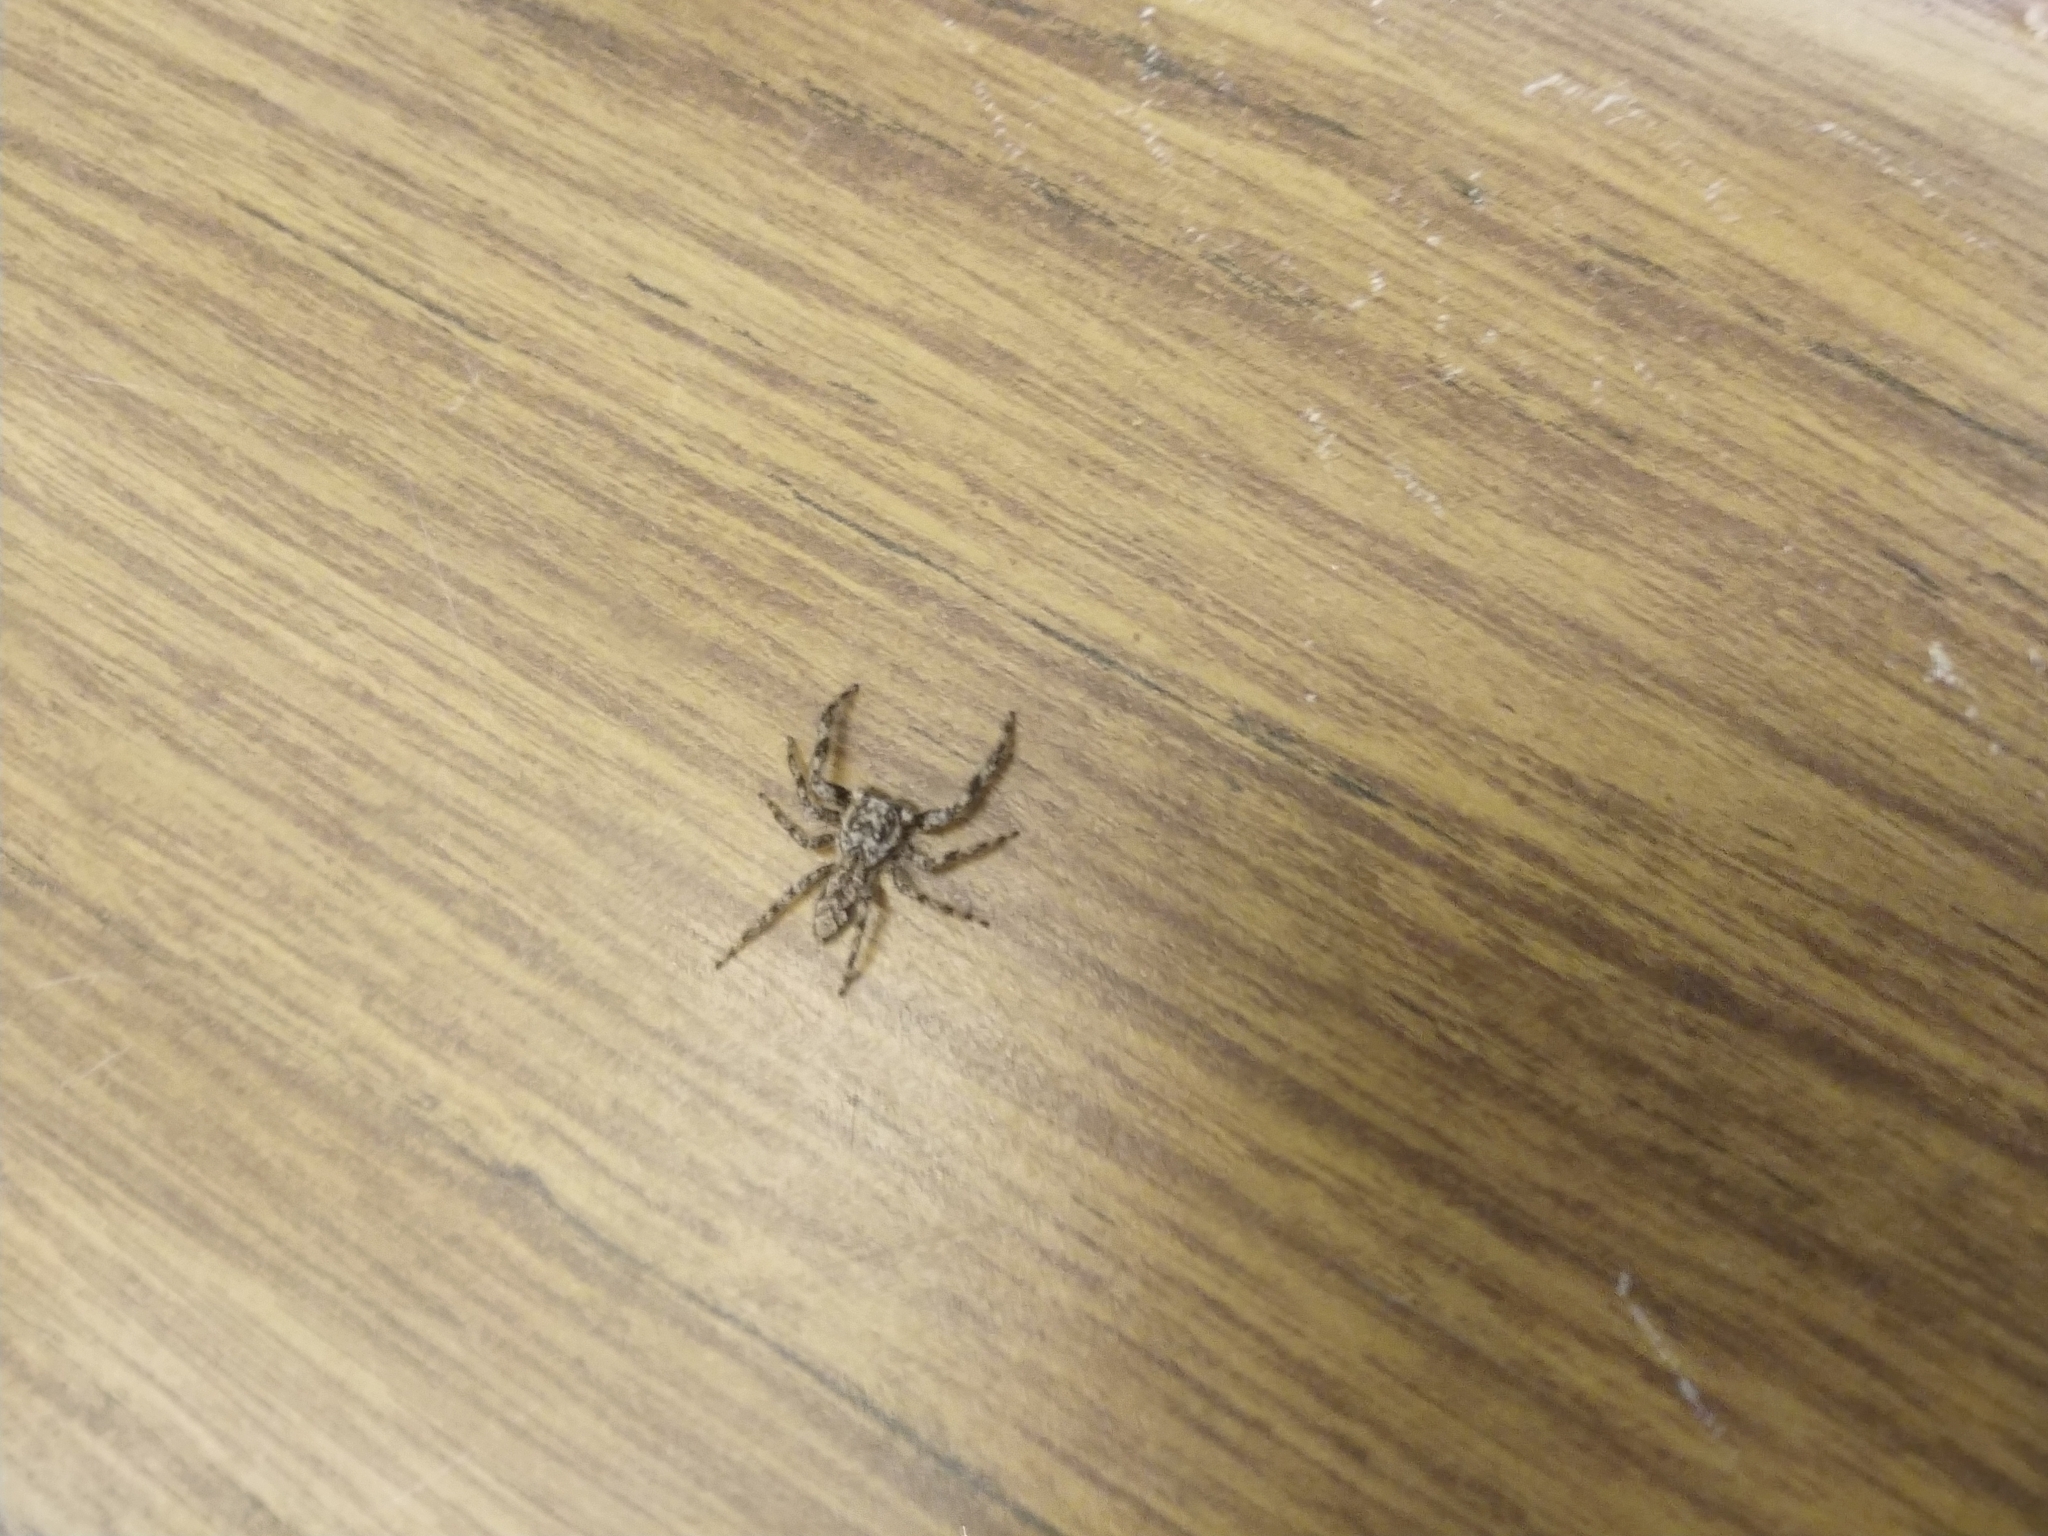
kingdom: Animalia
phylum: Arthropoda
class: Arachnida
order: Araneae
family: Salticidae
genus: Platycryptus
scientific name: Platycryptus undatus
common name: Tan jumping spider
